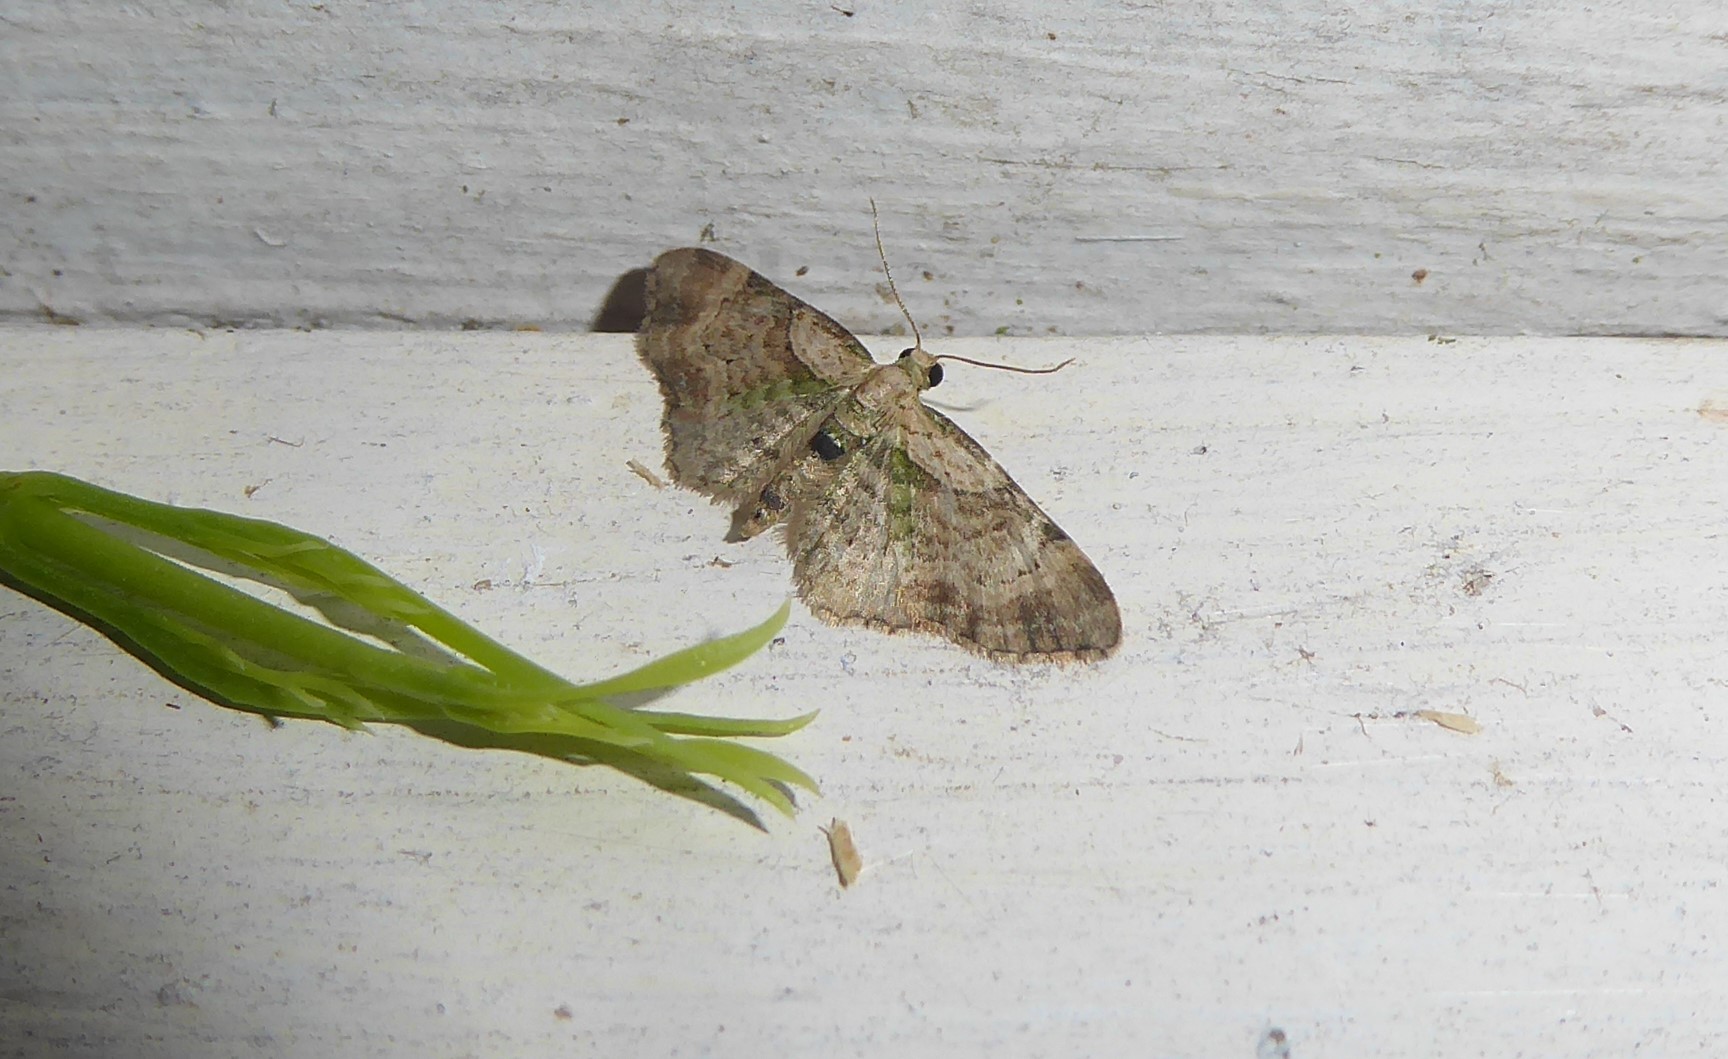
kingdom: Animalia
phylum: Arthropoda
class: Insecta
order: Lepidoptera
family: Geometridae
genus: Chloroclystis
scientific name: Chloroclystis
